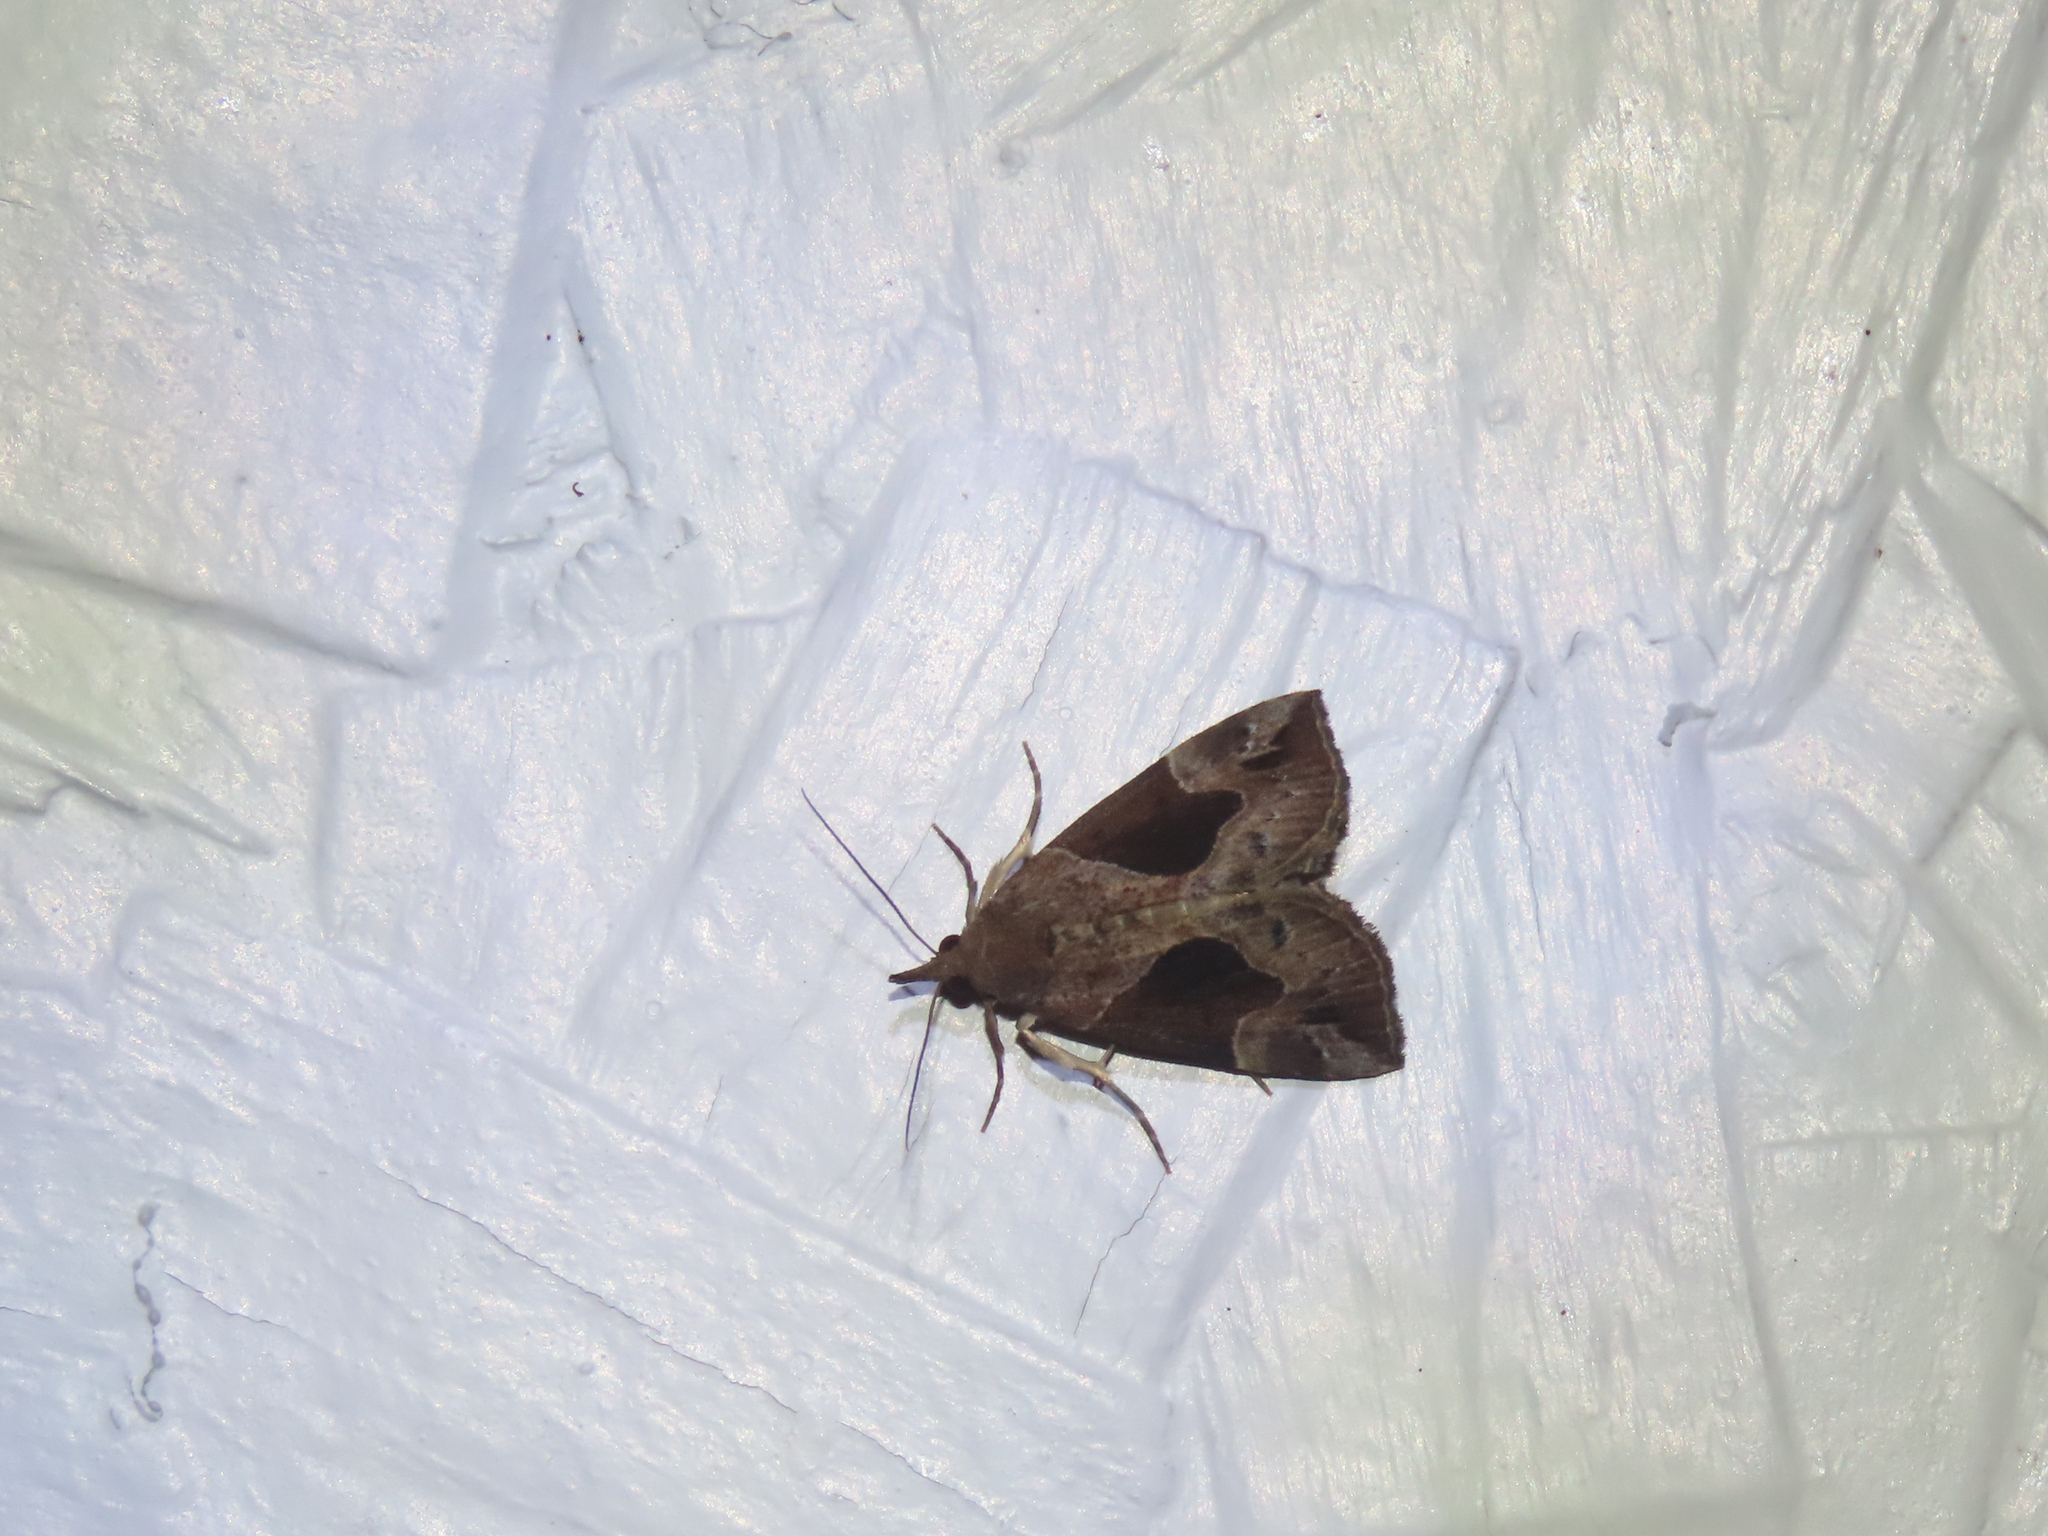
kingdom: Animalia
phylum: Arthropoda
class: Insecta
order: Lepidoptera
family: Erebidae
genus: Hypena
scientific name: Hypena manalis
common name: Flowing-line bomolocha moth
